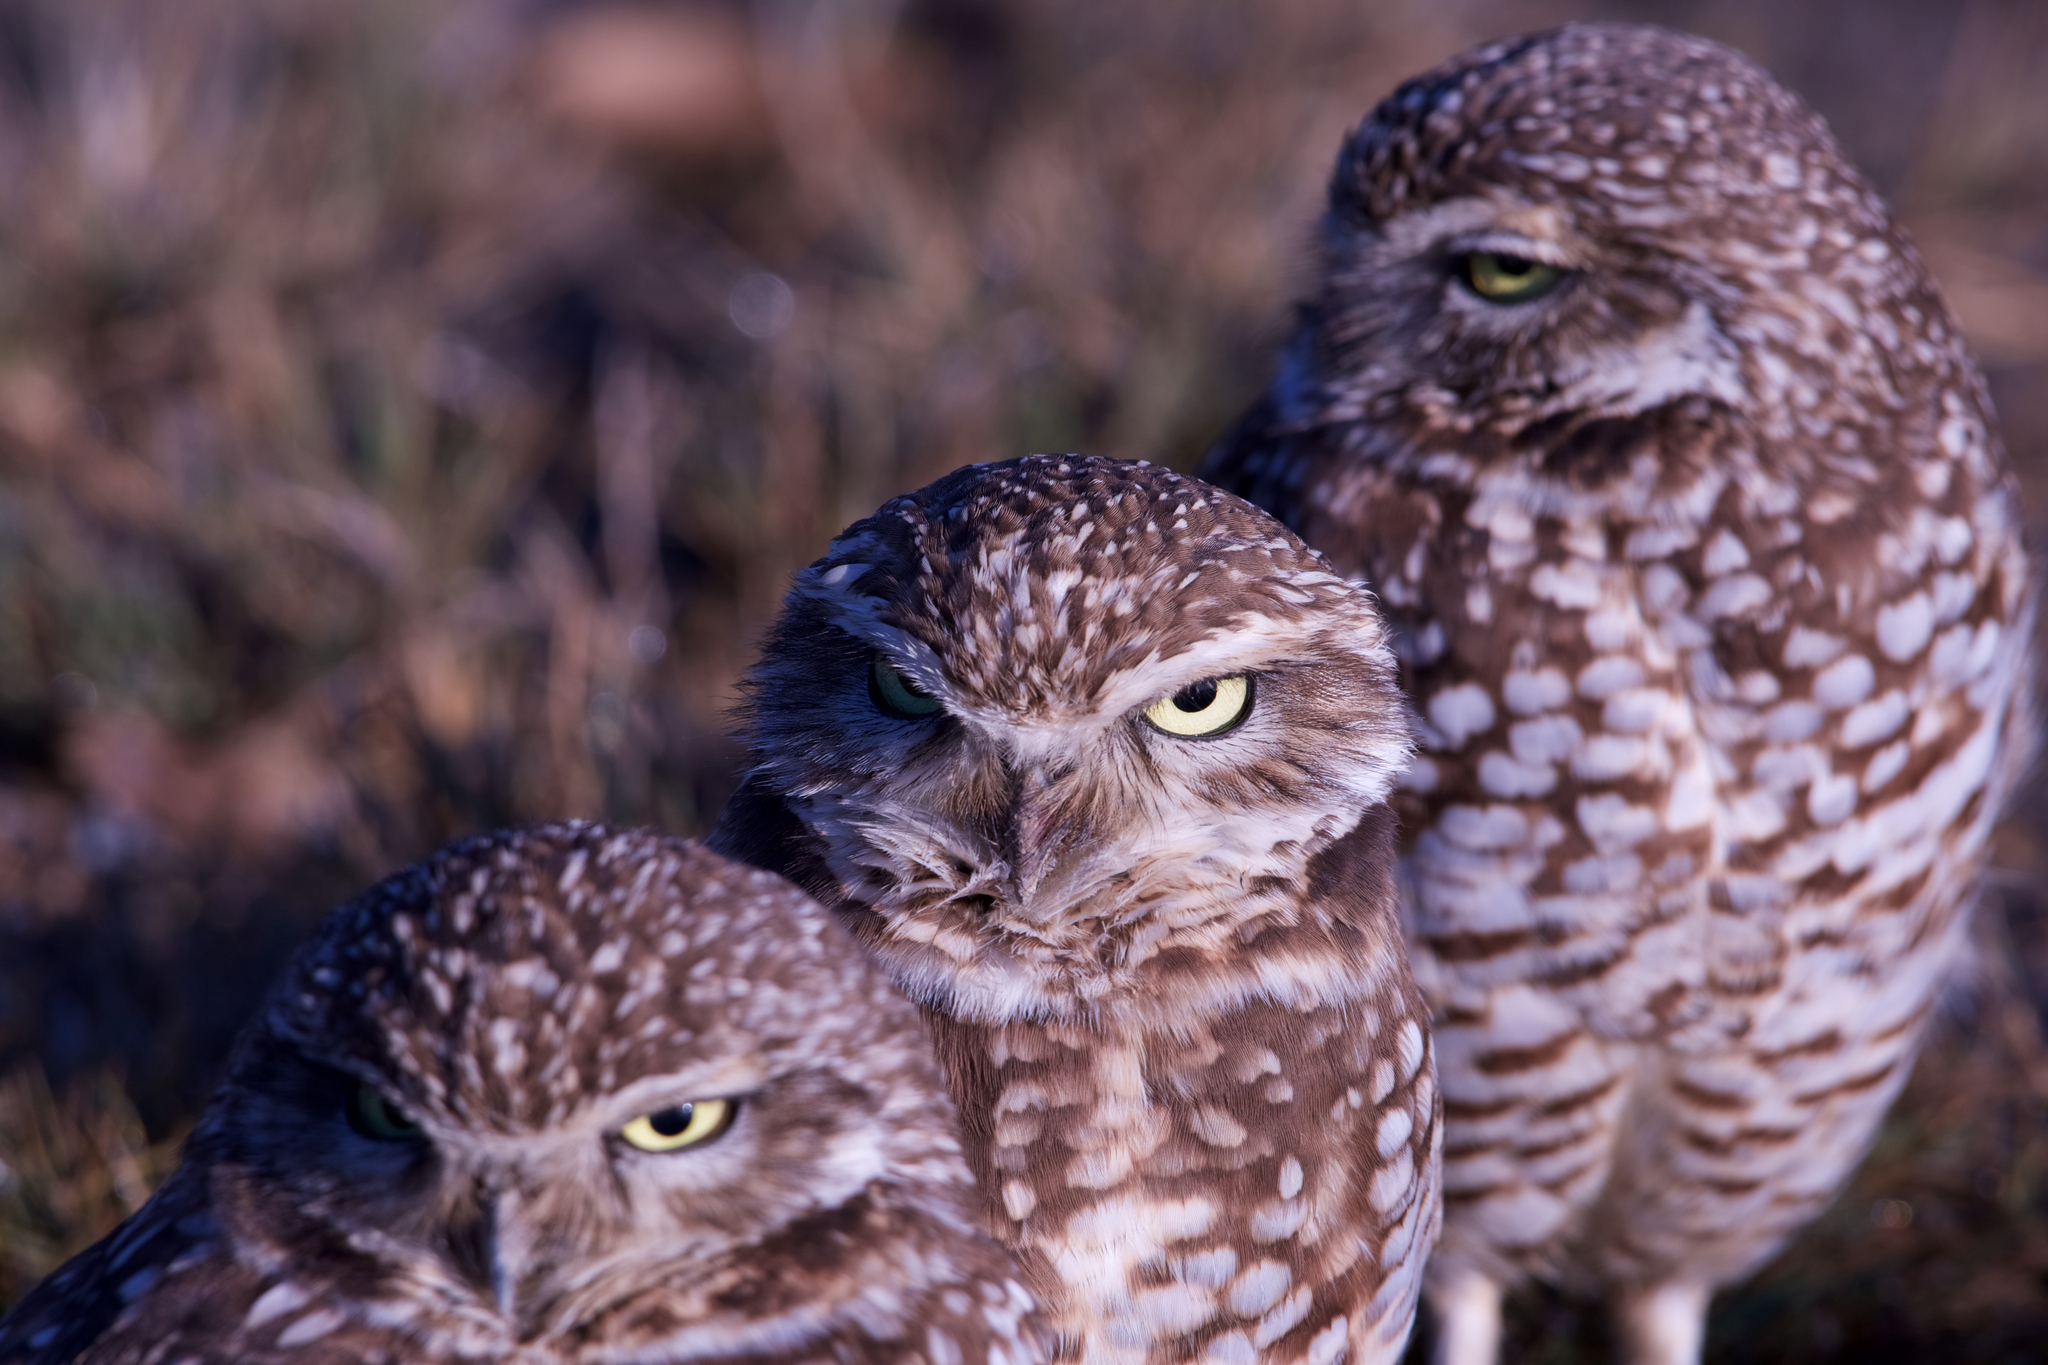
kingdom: Animalia
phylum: Chordata
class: Aves
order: Strigiformes
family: Strigidae
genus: Athene
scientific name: Athene cunicularia
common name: Burrowing owl
